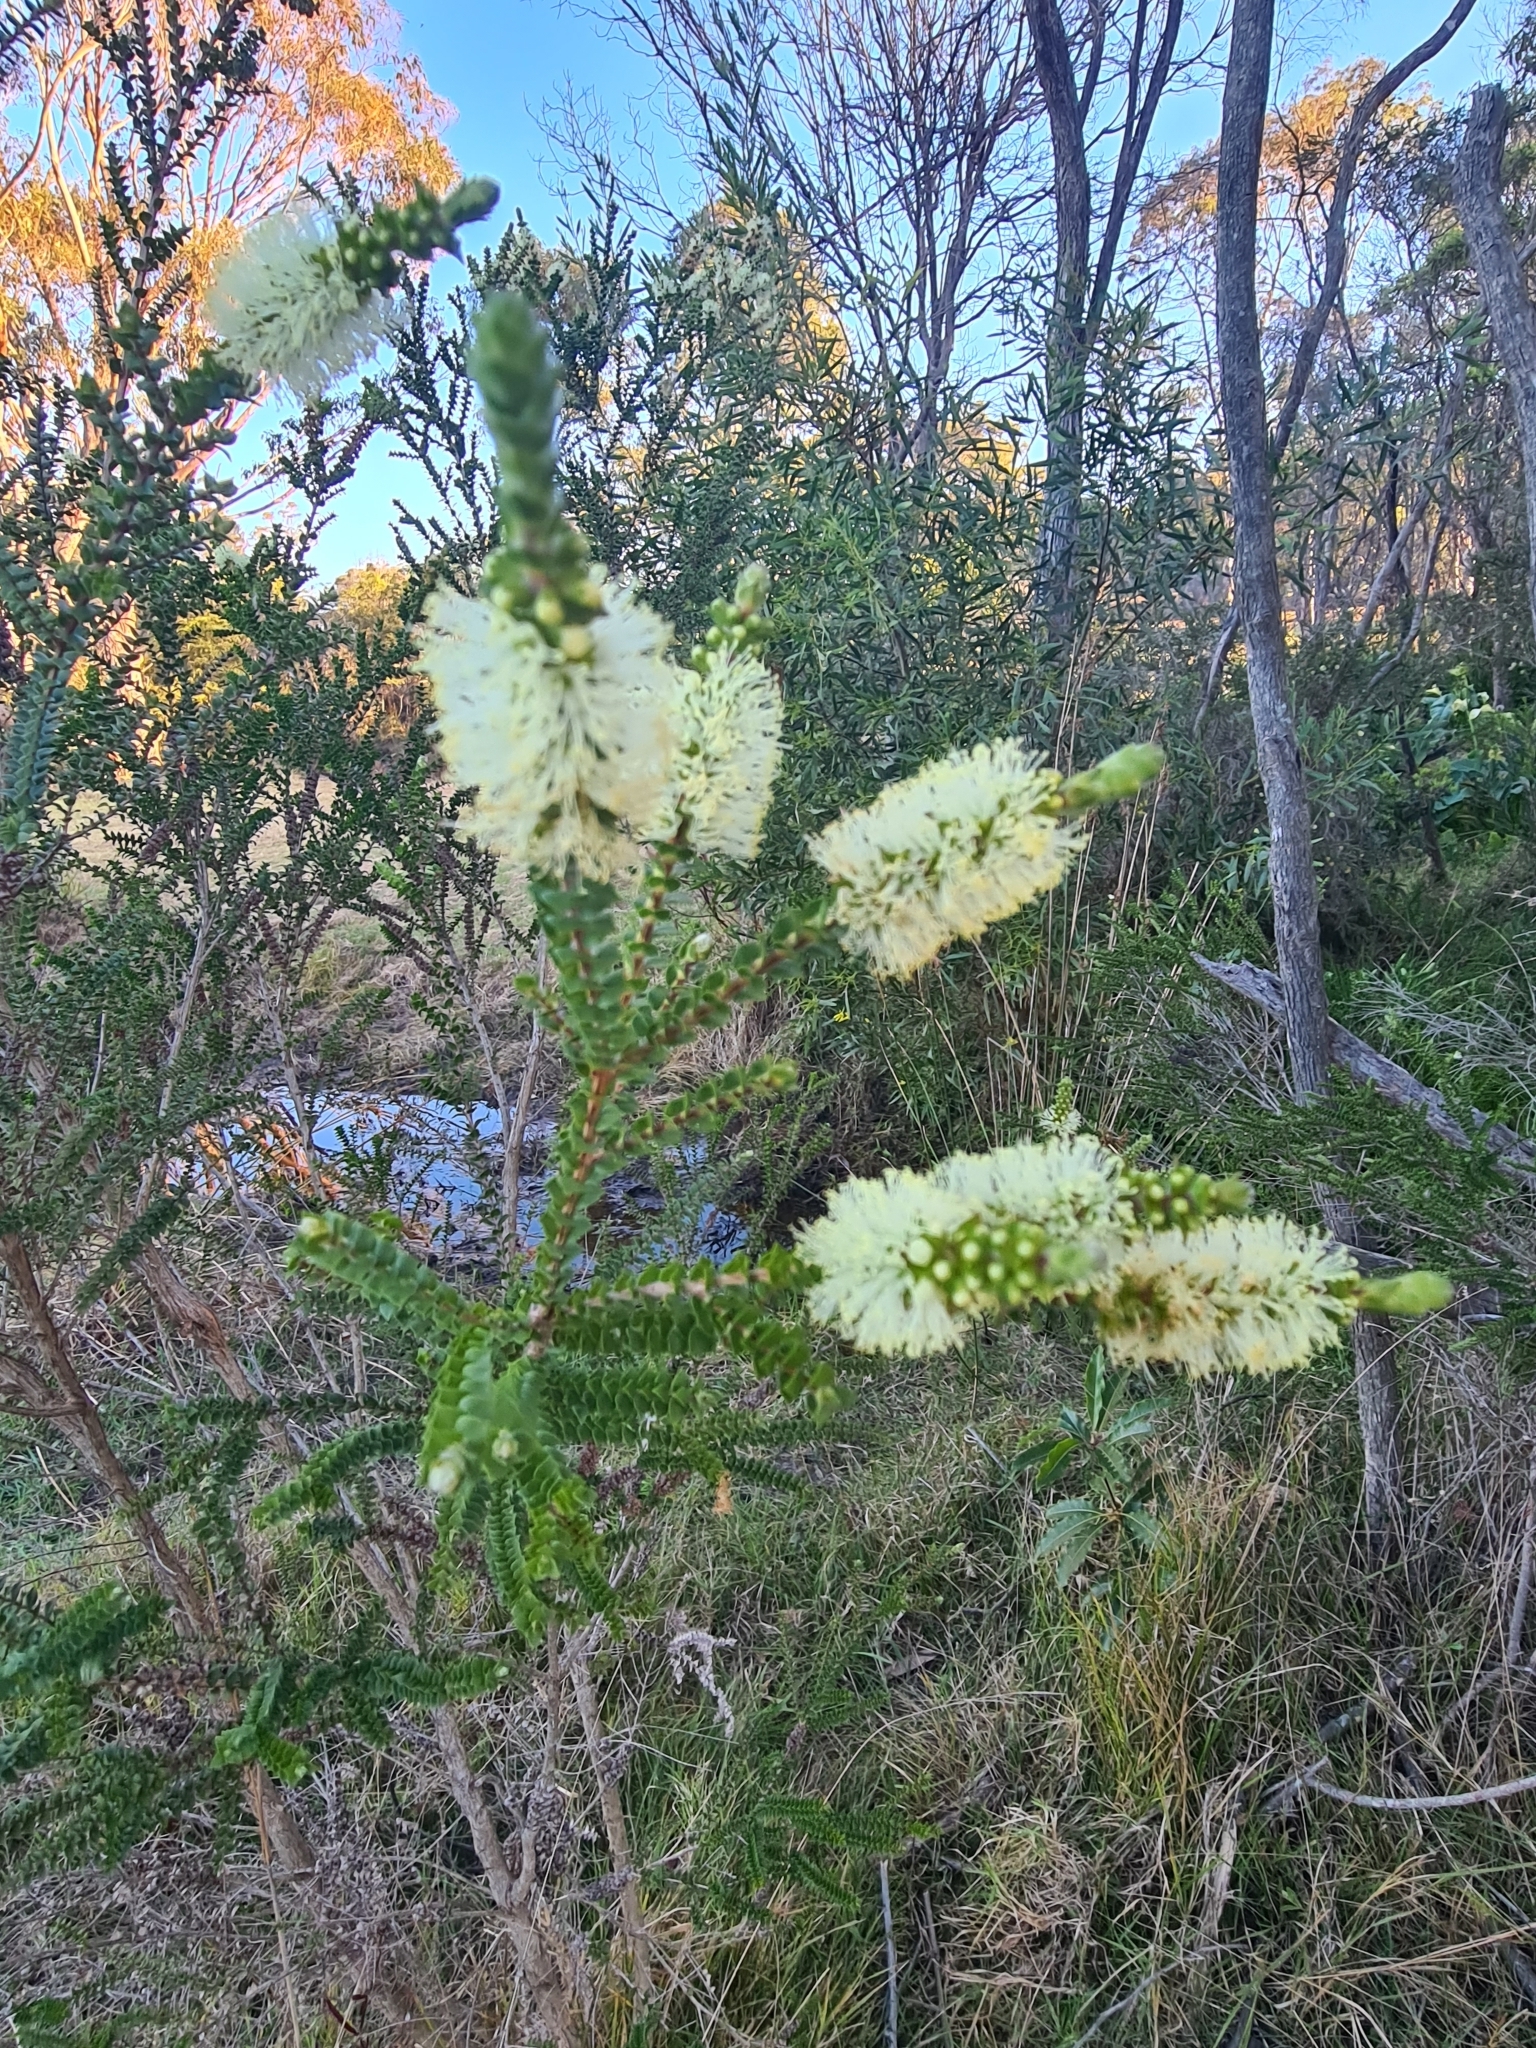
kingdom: Plantae
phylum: Tracheophyta
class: Magnoliopsida
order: Myrtales
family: Myrtaceae
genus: Melaleuca
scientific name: Melaleuca squarrosa
